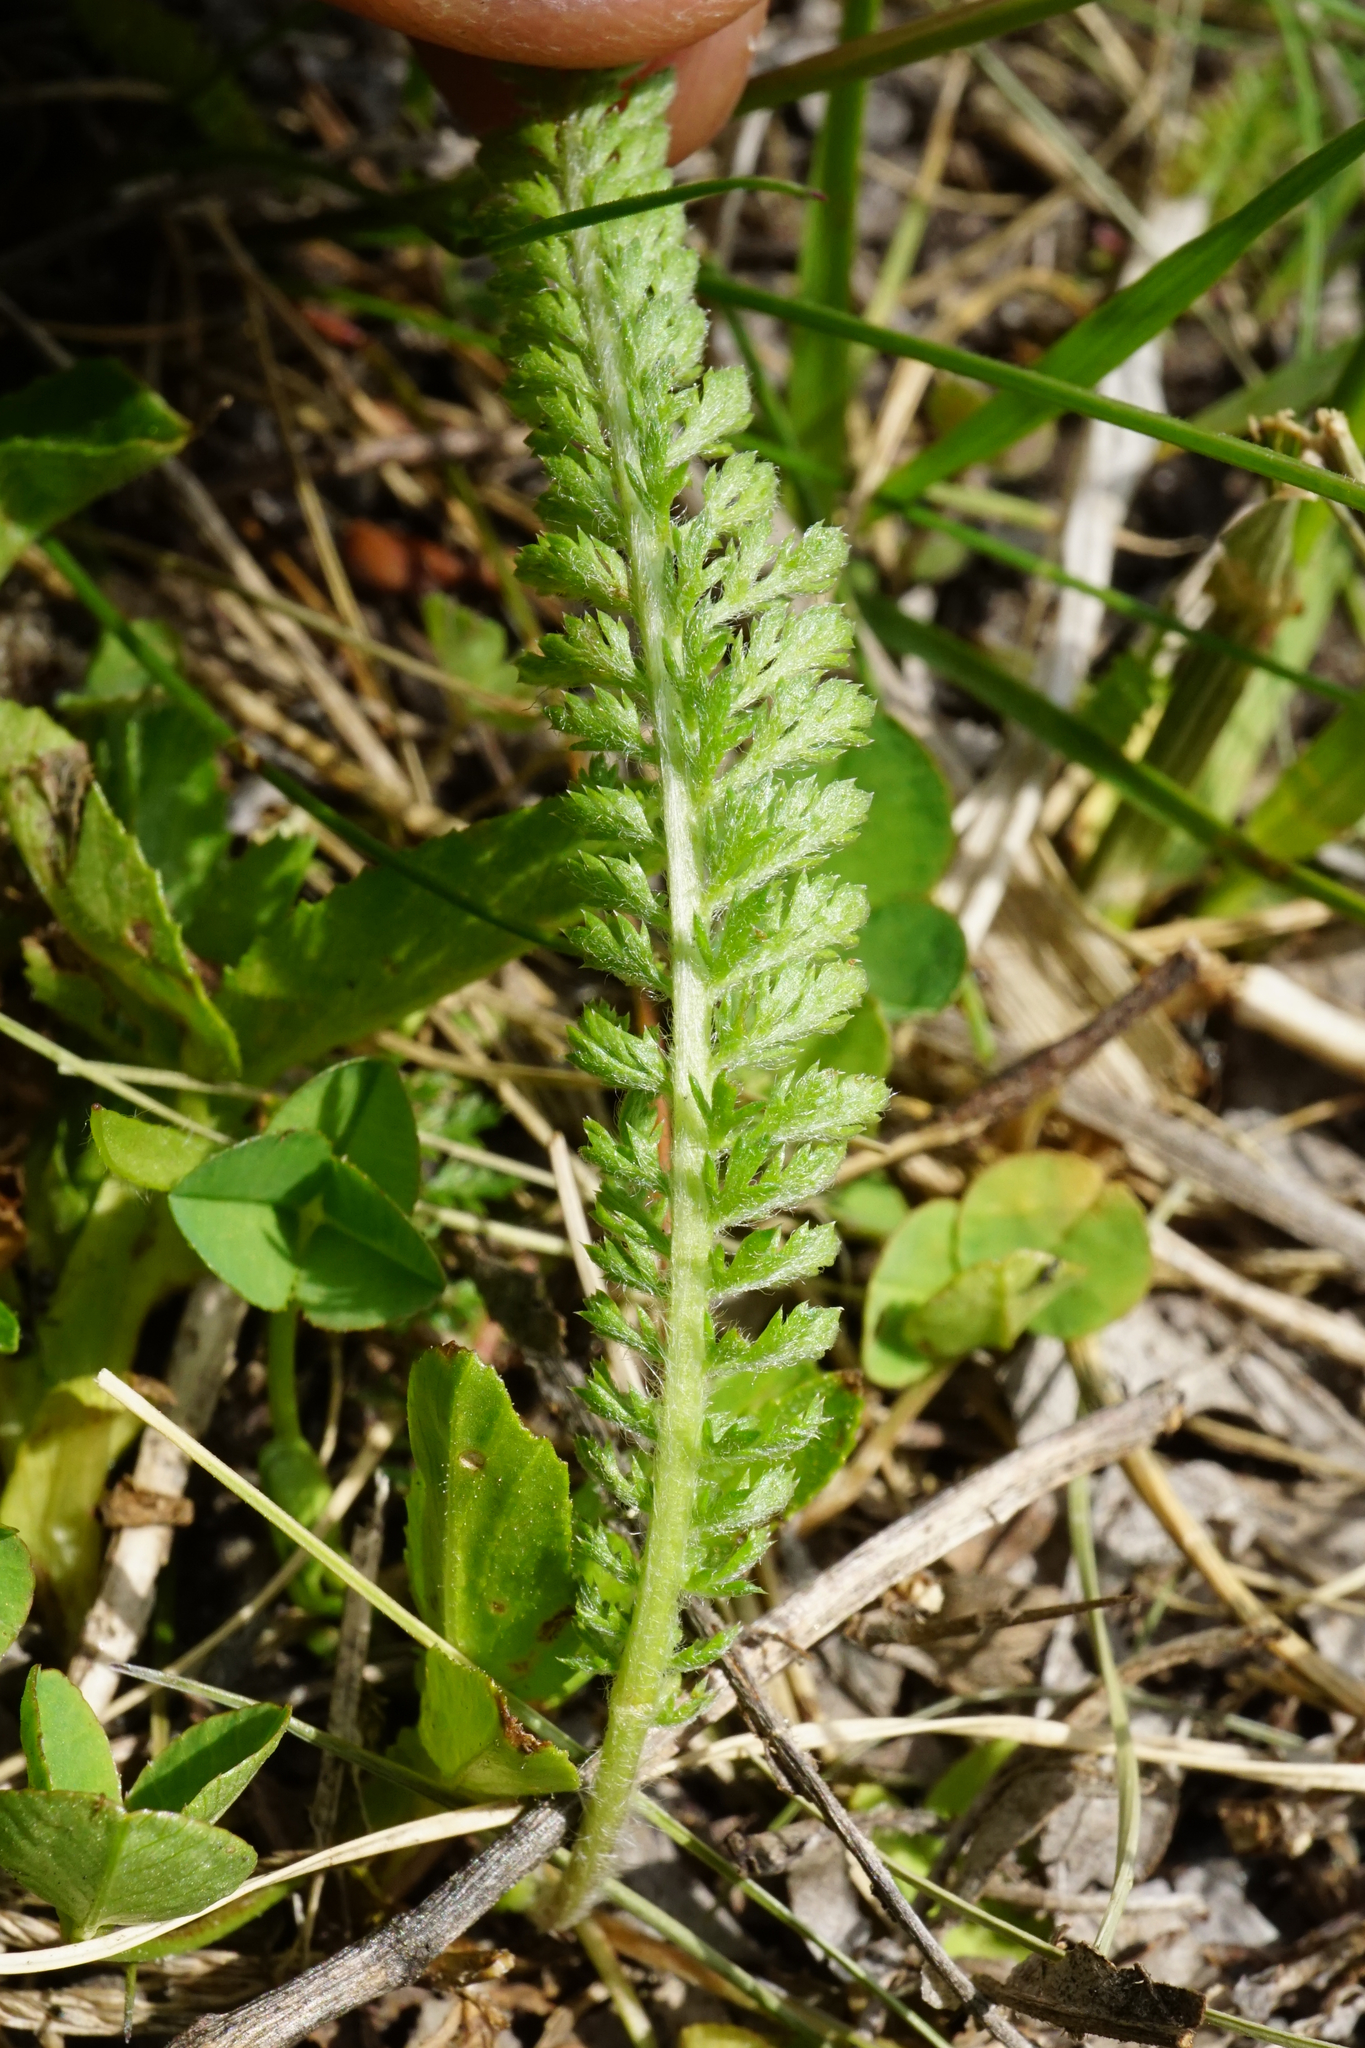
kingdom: Plantae
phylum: Tracheophyta
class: Magnoliopsida
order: Asterales
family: Asteraceae
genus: Achillea
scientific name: Achillea
